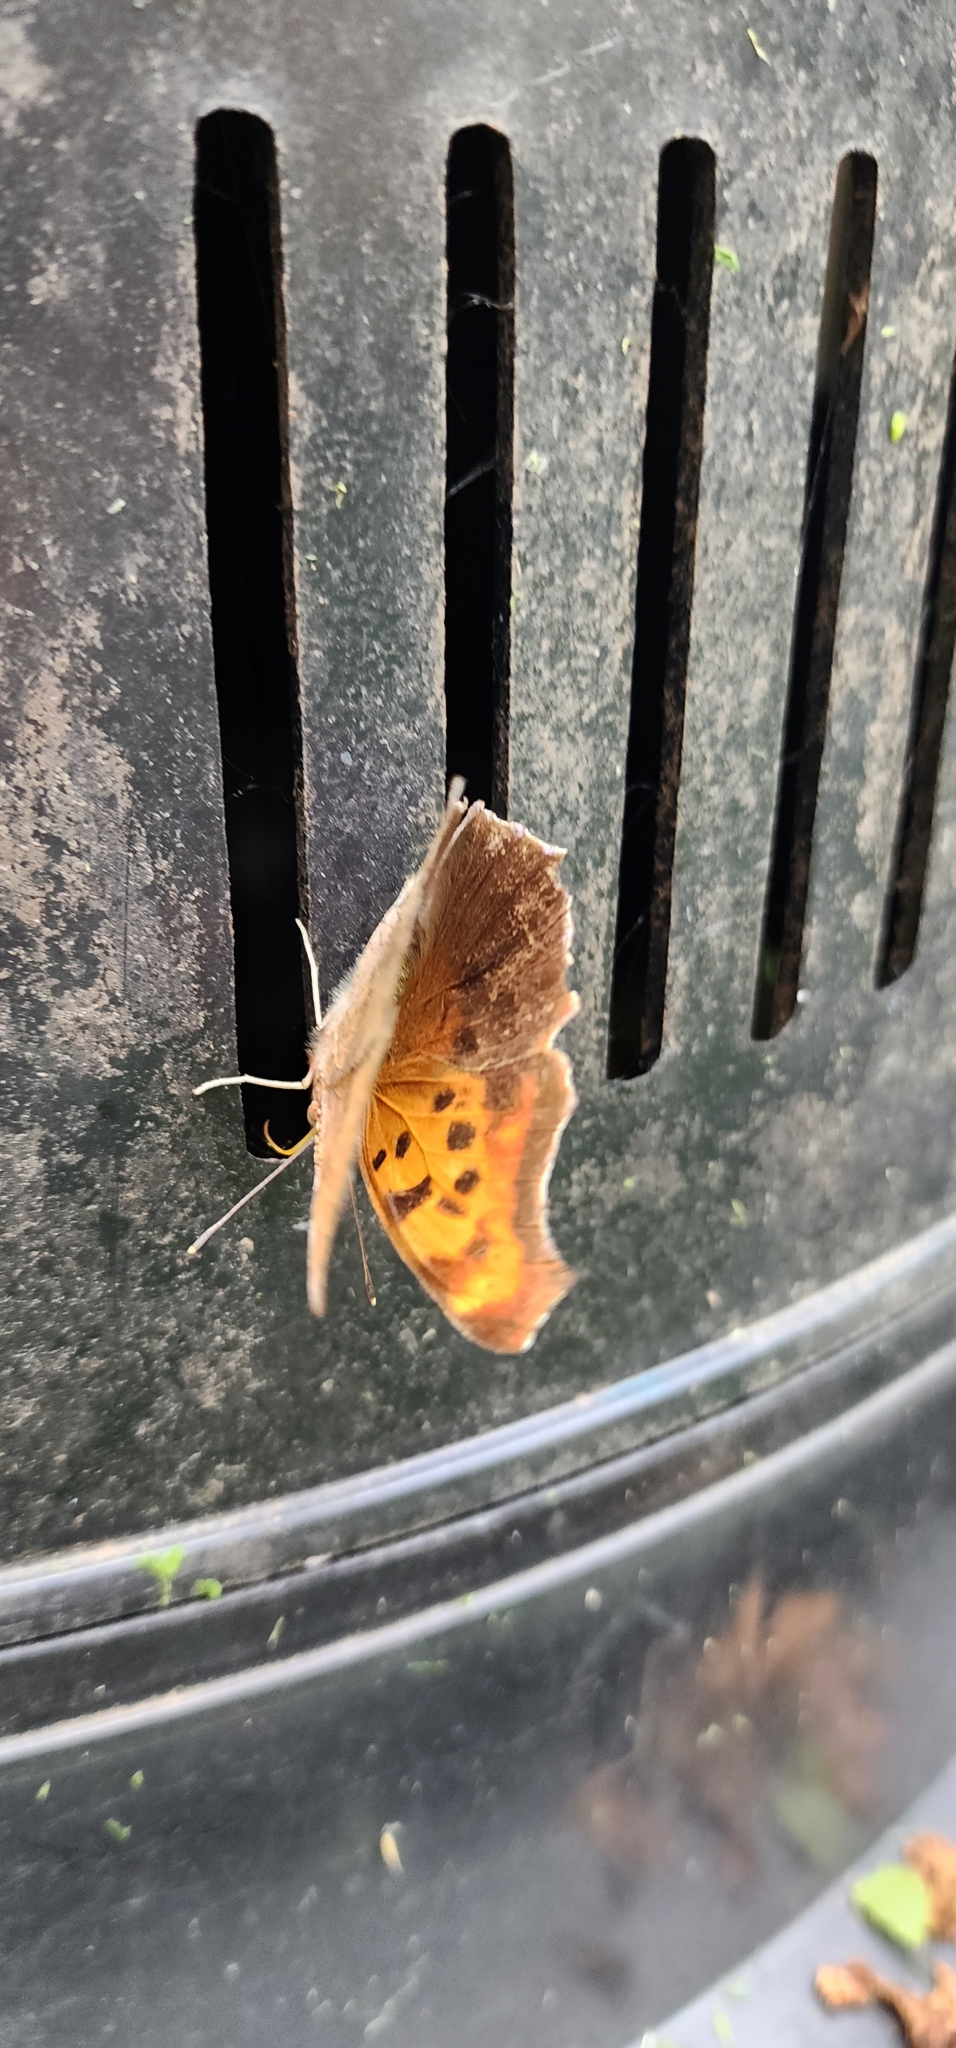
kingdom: Animalia
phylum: Arthropoda
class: Insecta
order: Lepidoptera
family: Nymphalidae
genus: Polygonia
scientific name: Polygonia interrogationis
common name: Question mark
